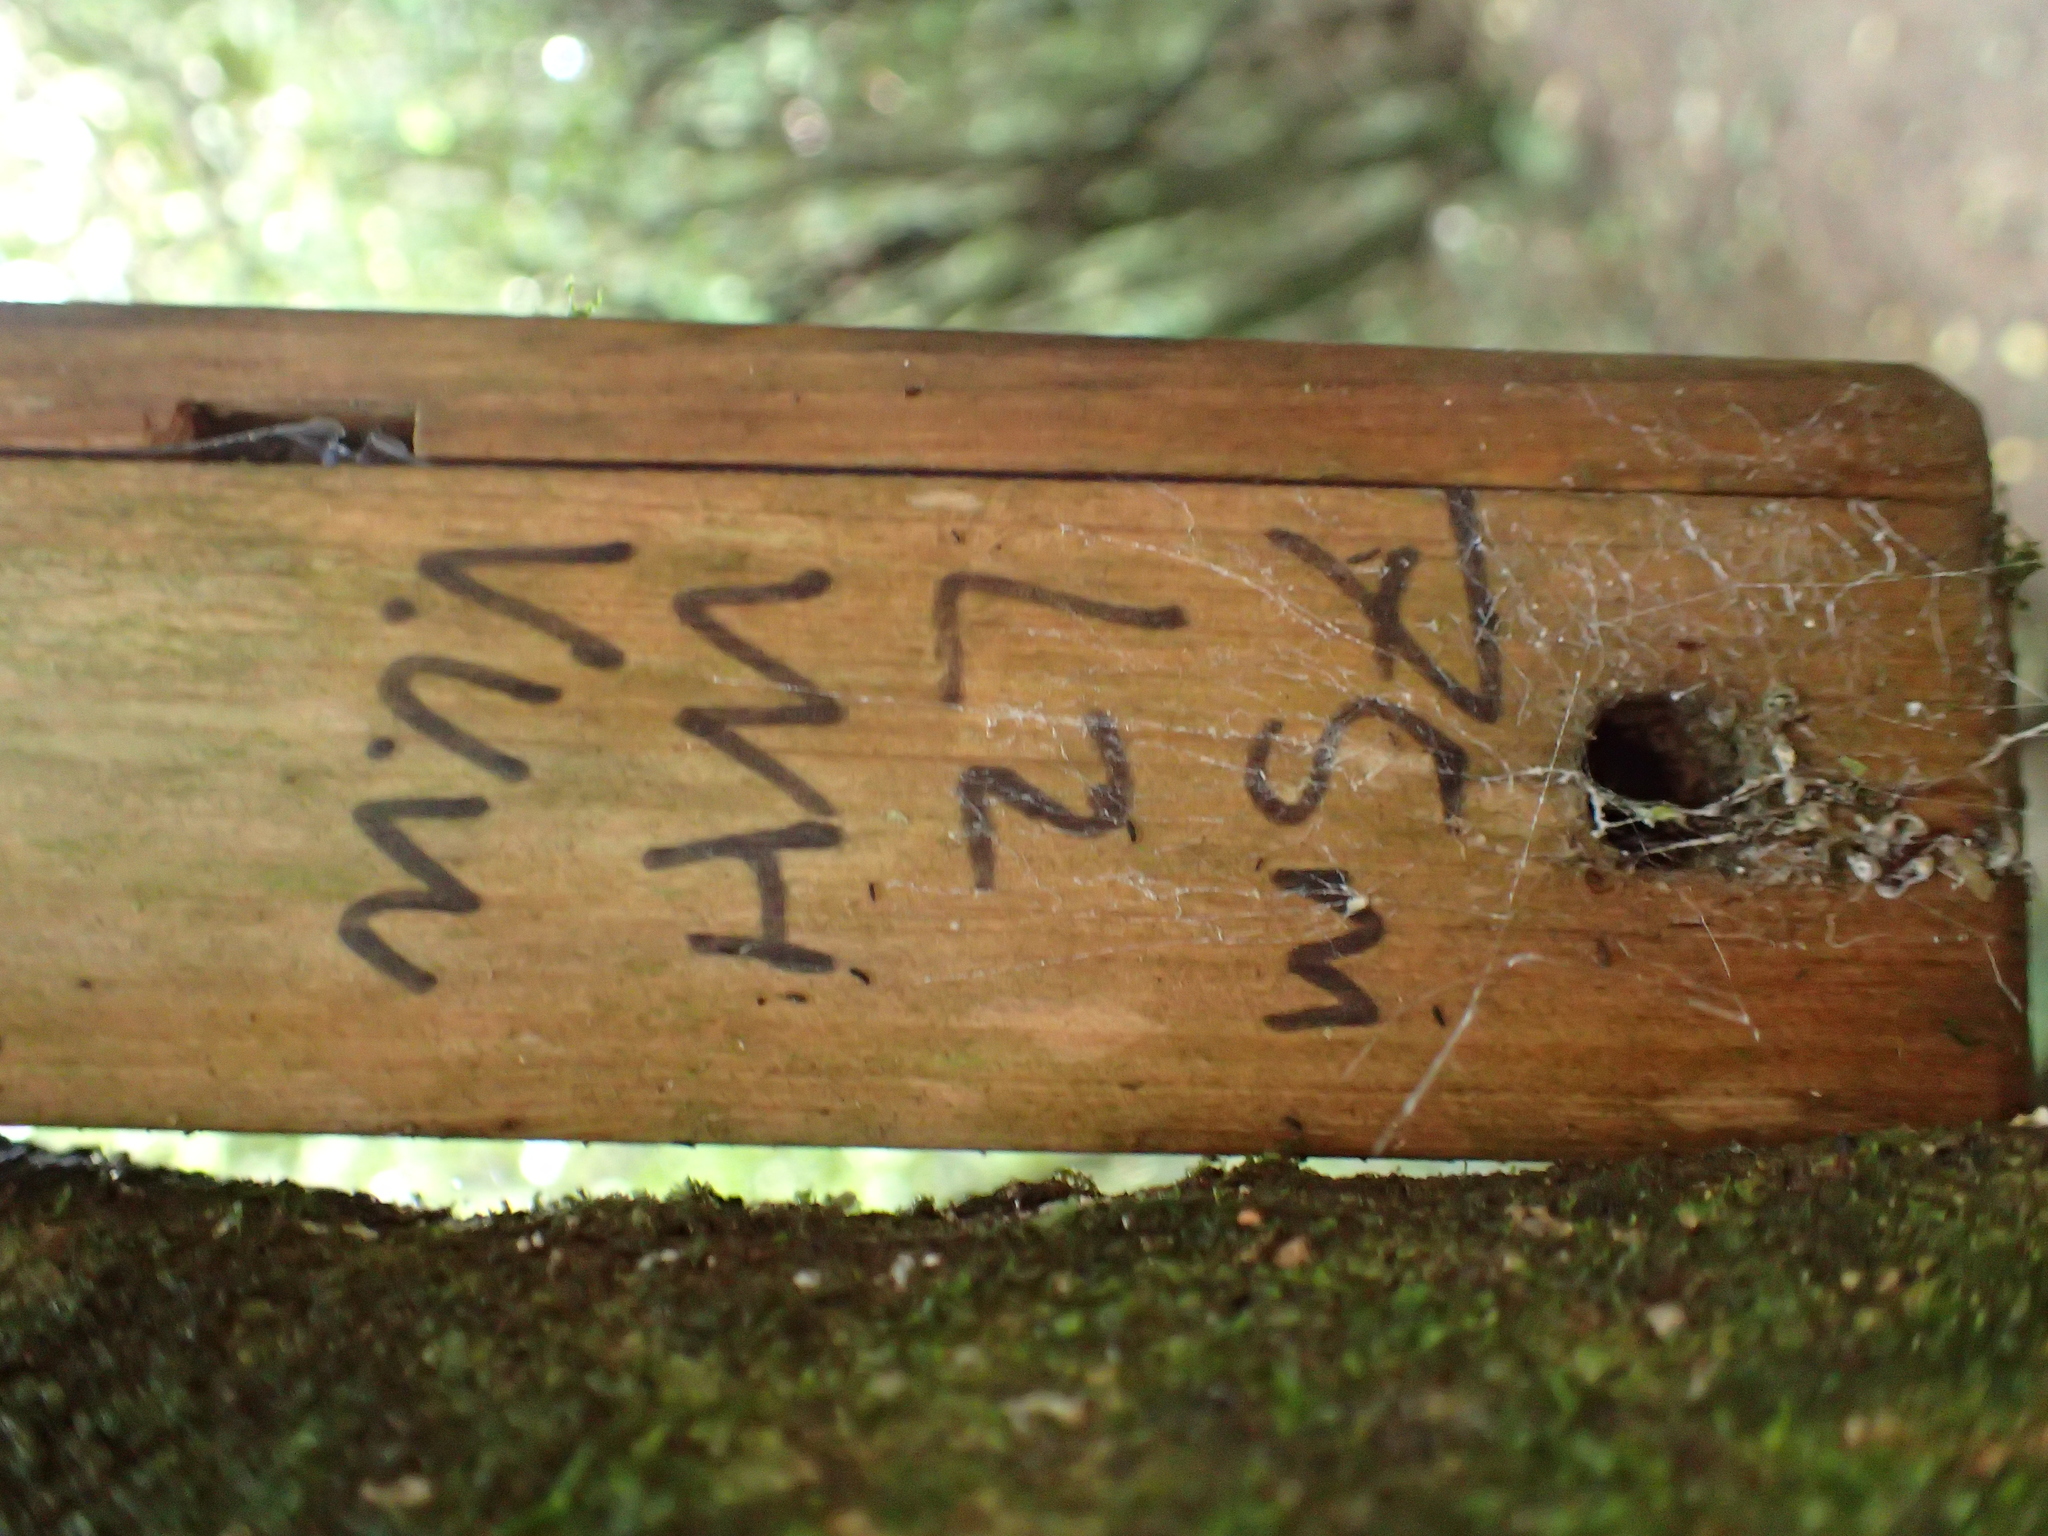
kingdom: Animalia
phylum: Arthropoda
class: Insecta
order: Orthoptera
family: Anostostomatidae
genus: Hemideina
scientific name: Hemideina crassidens
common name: Wellington tree weta
